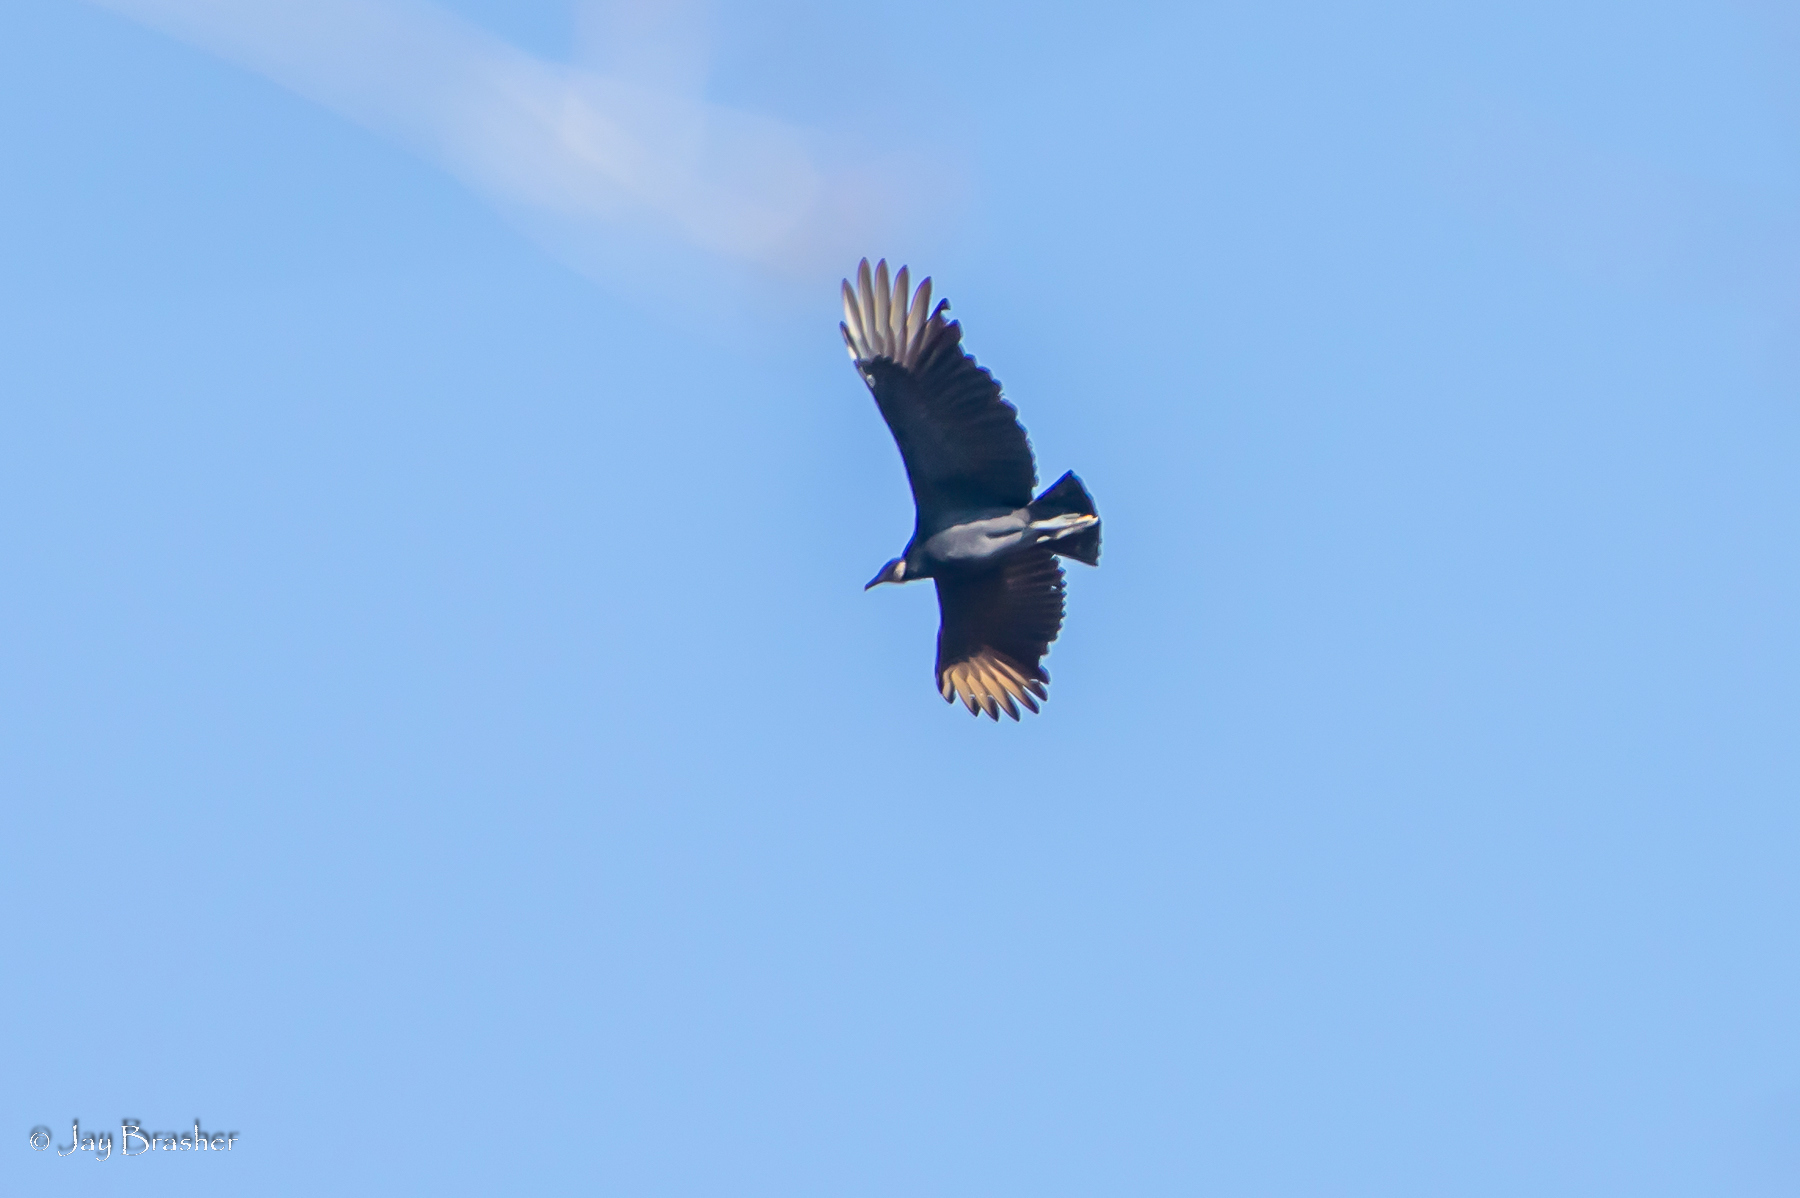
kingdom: Animalia
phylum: Chordata
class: Aves
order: Accipitriformes
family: Cathartidae
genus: Coragyps
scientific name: Coragyps atratus
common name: Black vulture
